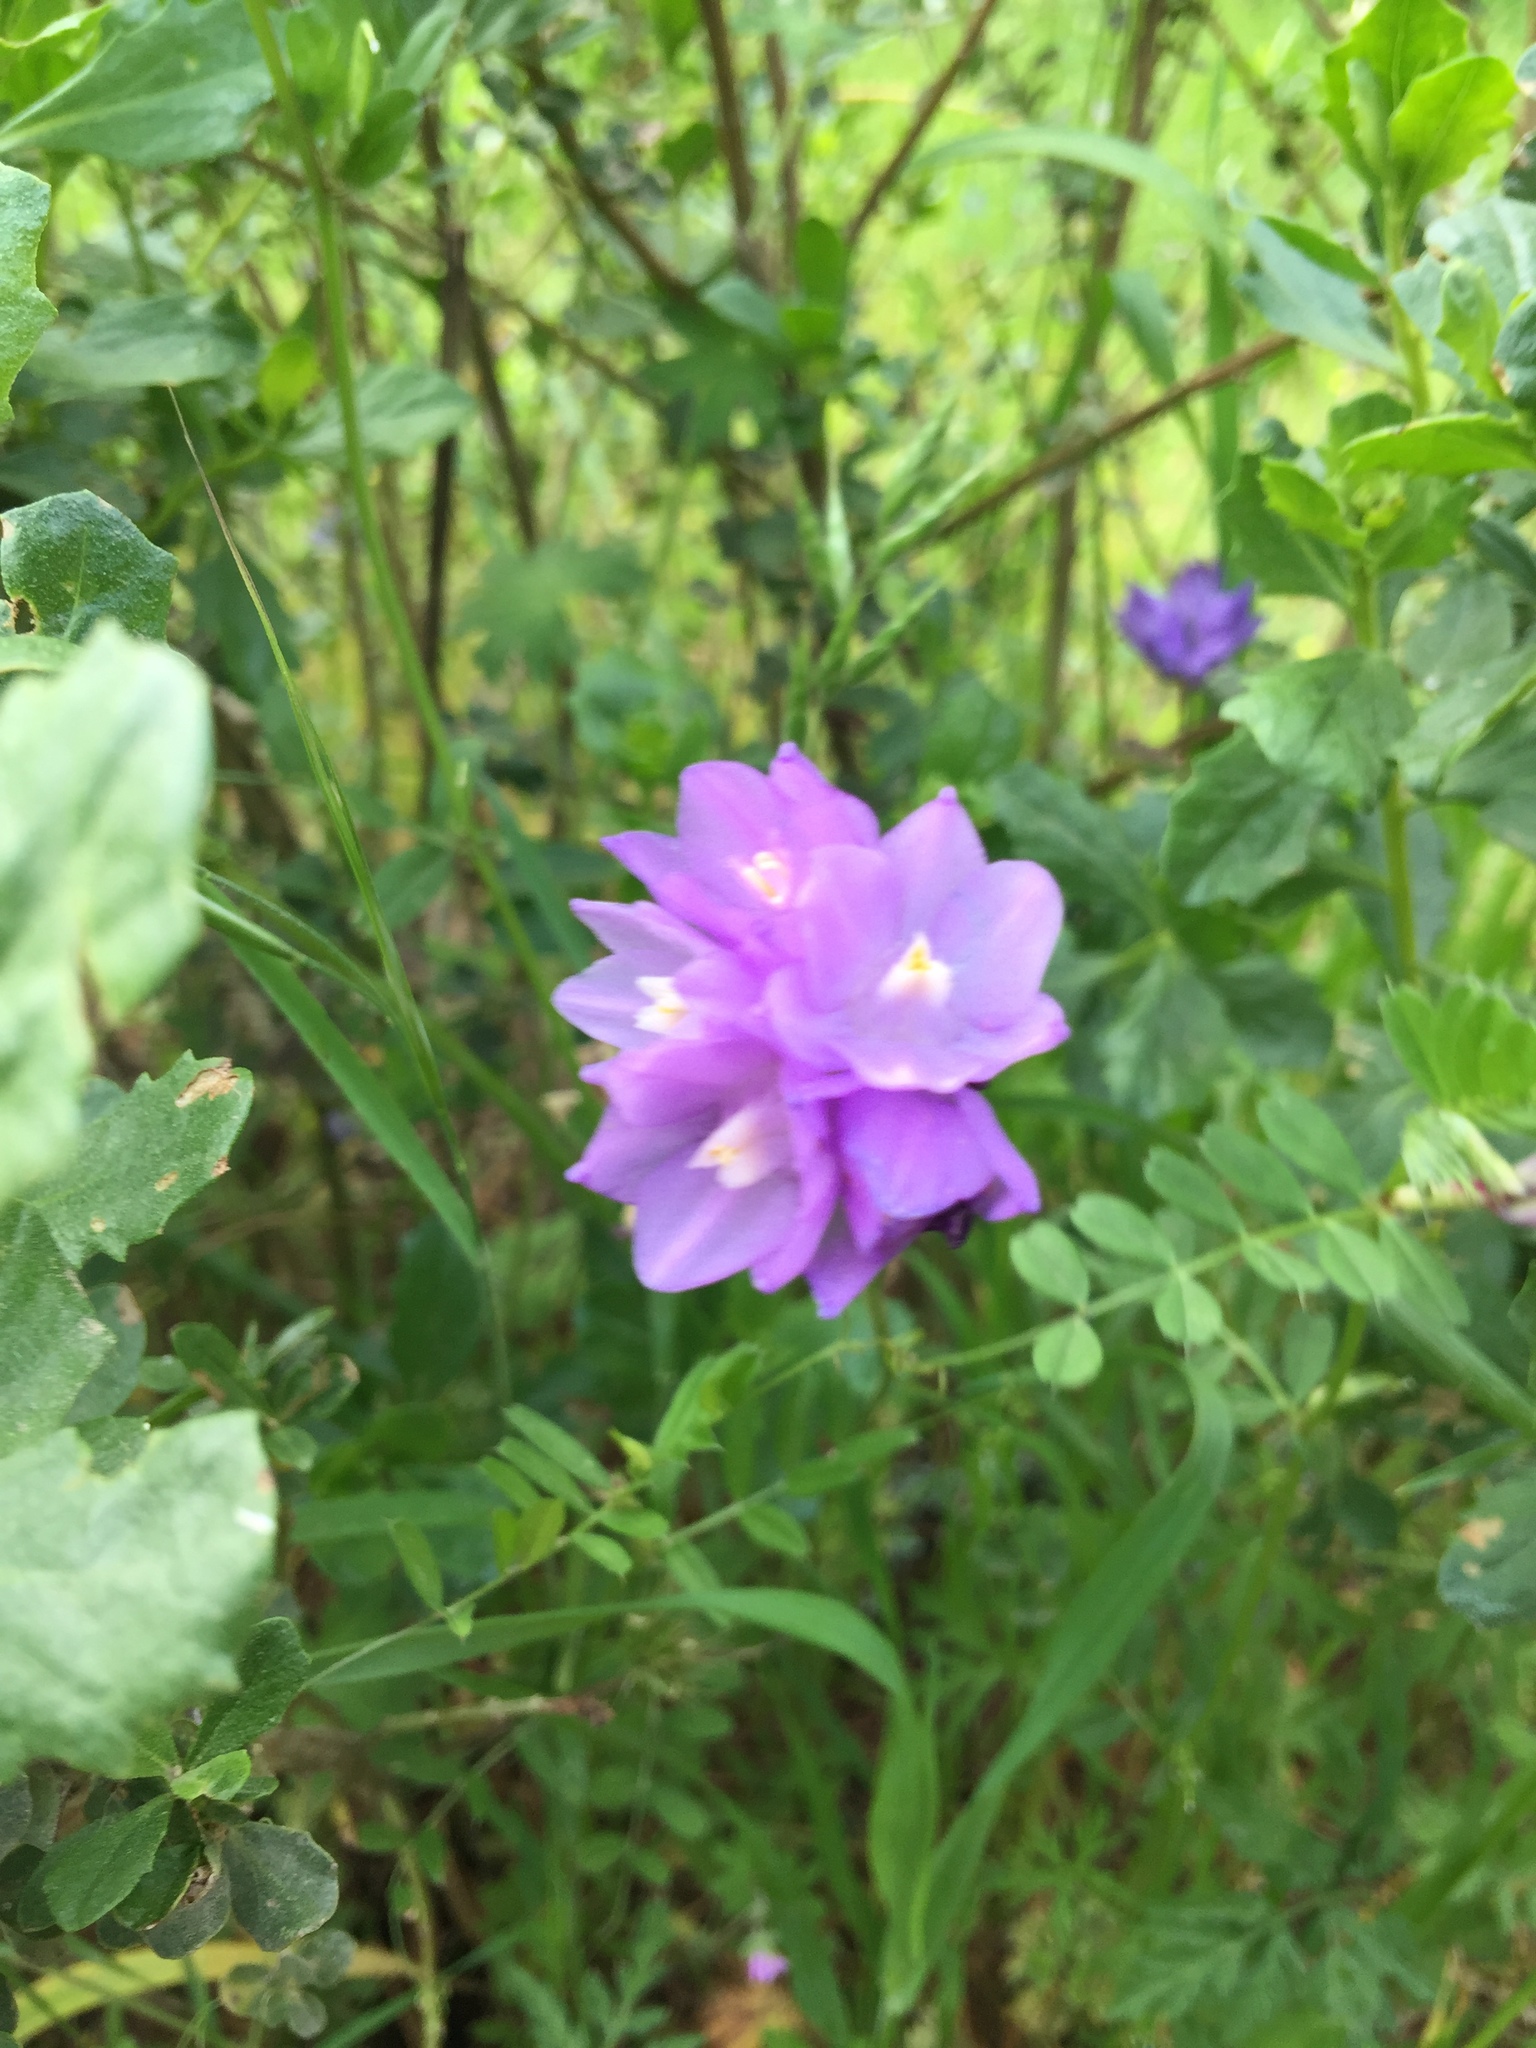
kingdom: Plantae
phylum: Tracheophyta
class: Liliopsida
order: Asparagales
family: Asparagaceae
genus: Dipterostemon
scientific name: Dipterostemon capitatus
